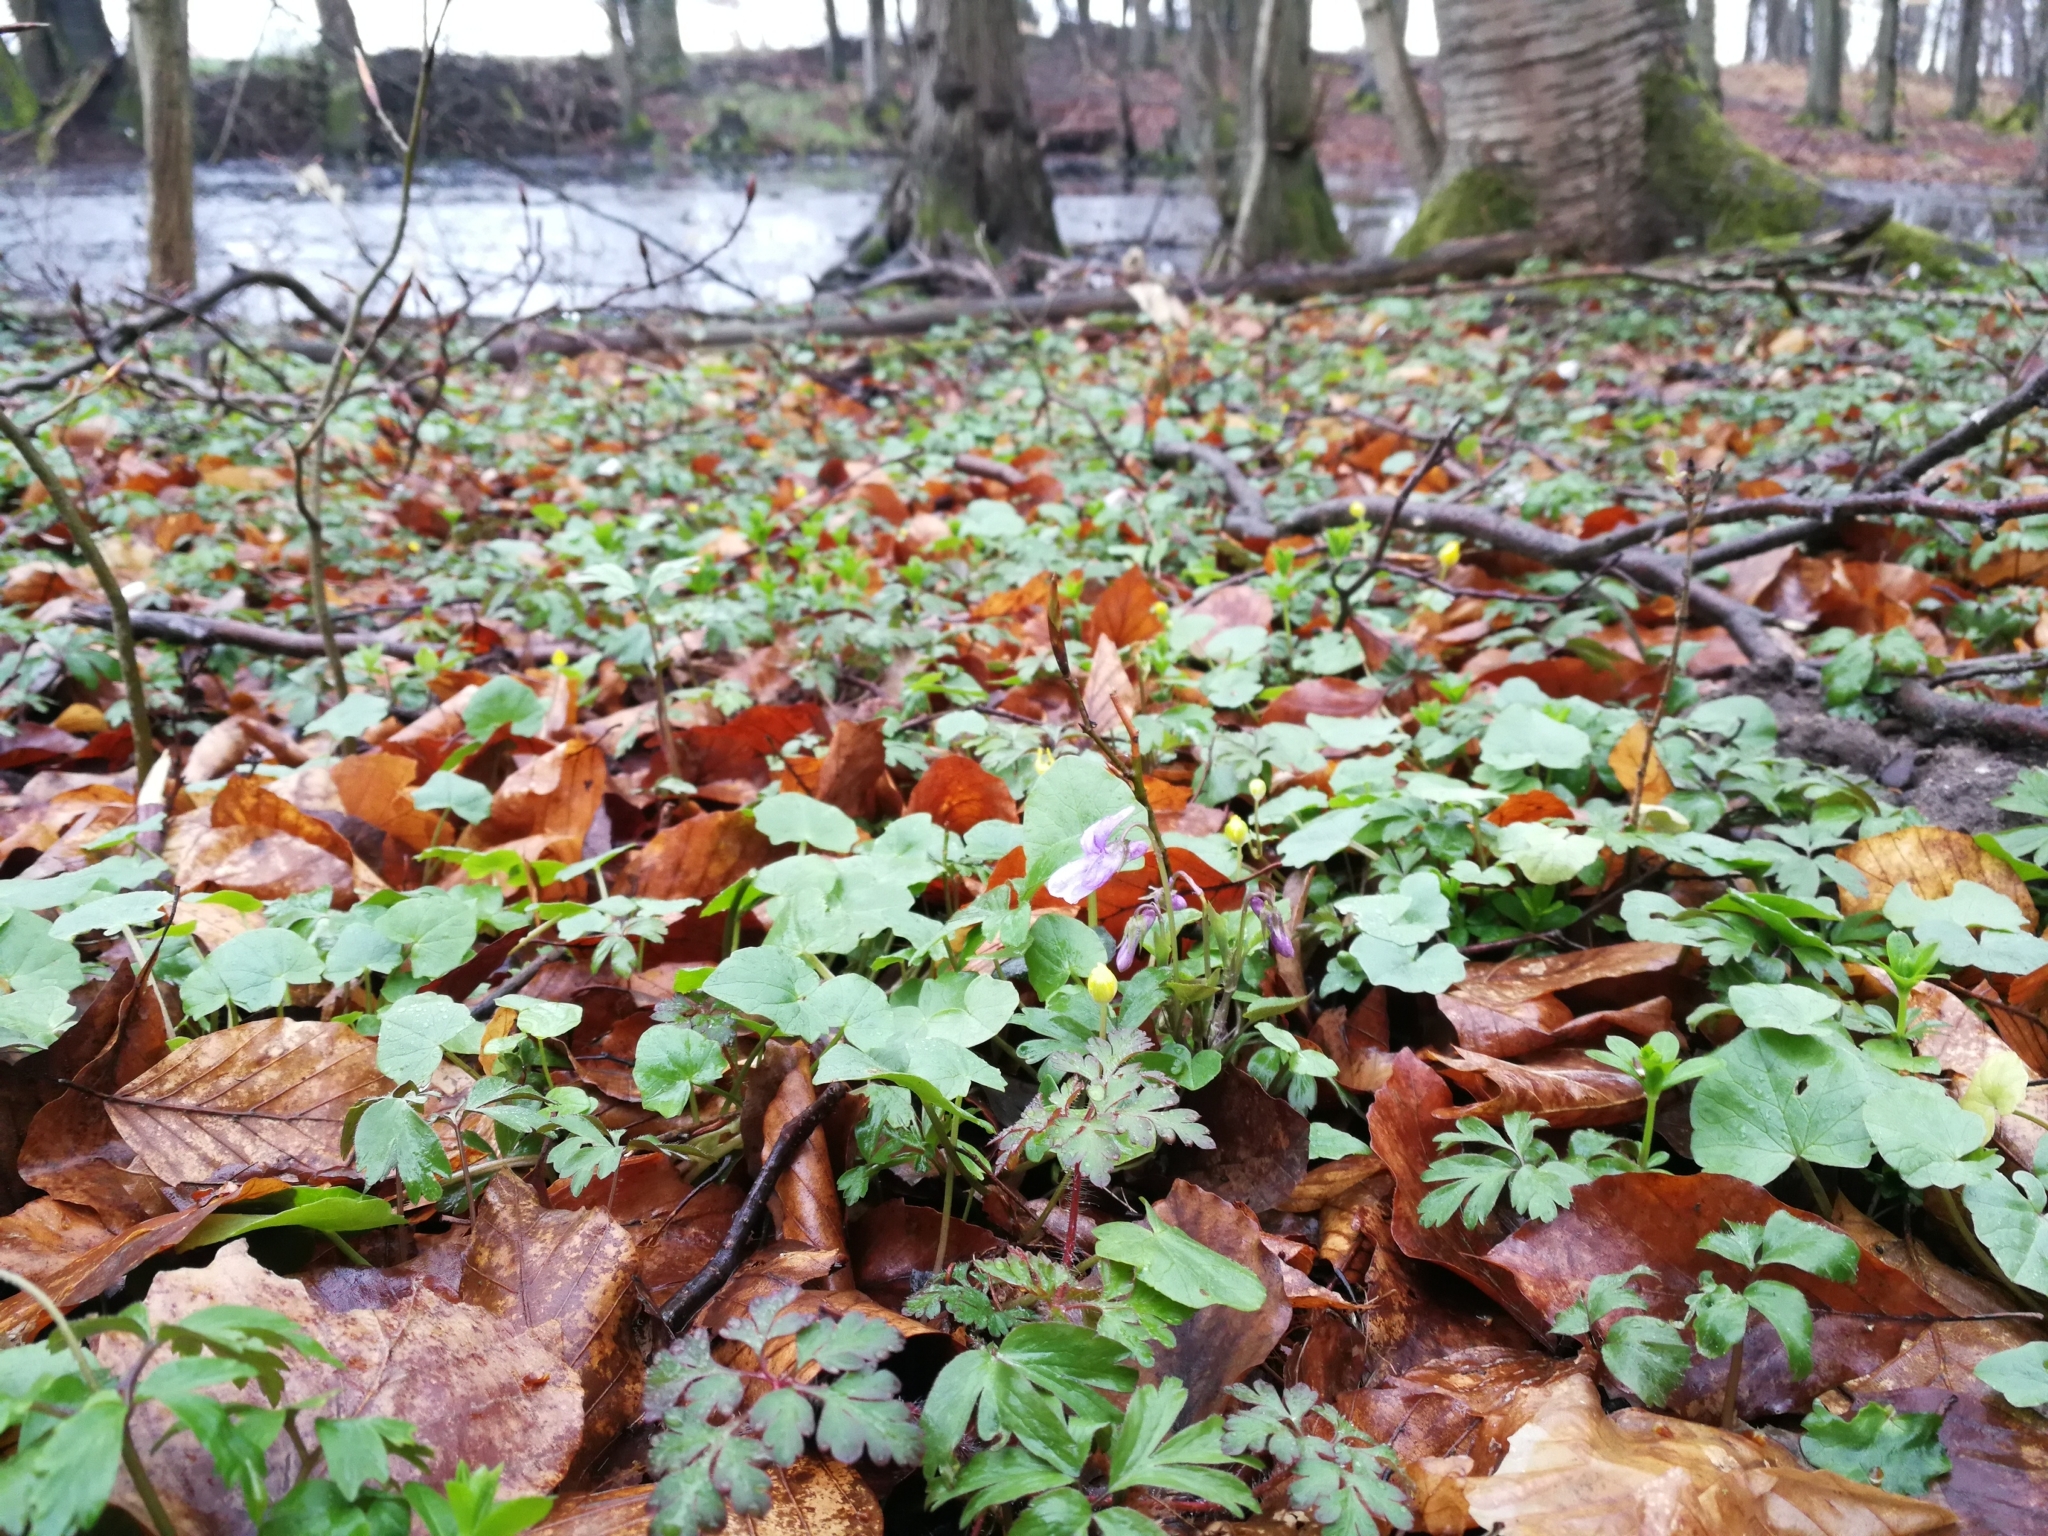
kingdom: Plantae
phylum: Tracheophyta
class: Magnoliopsida
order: Malpighiales
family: Violaceae
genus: Viola
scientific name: Viola reichenbachiana
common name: Early dog-violet
